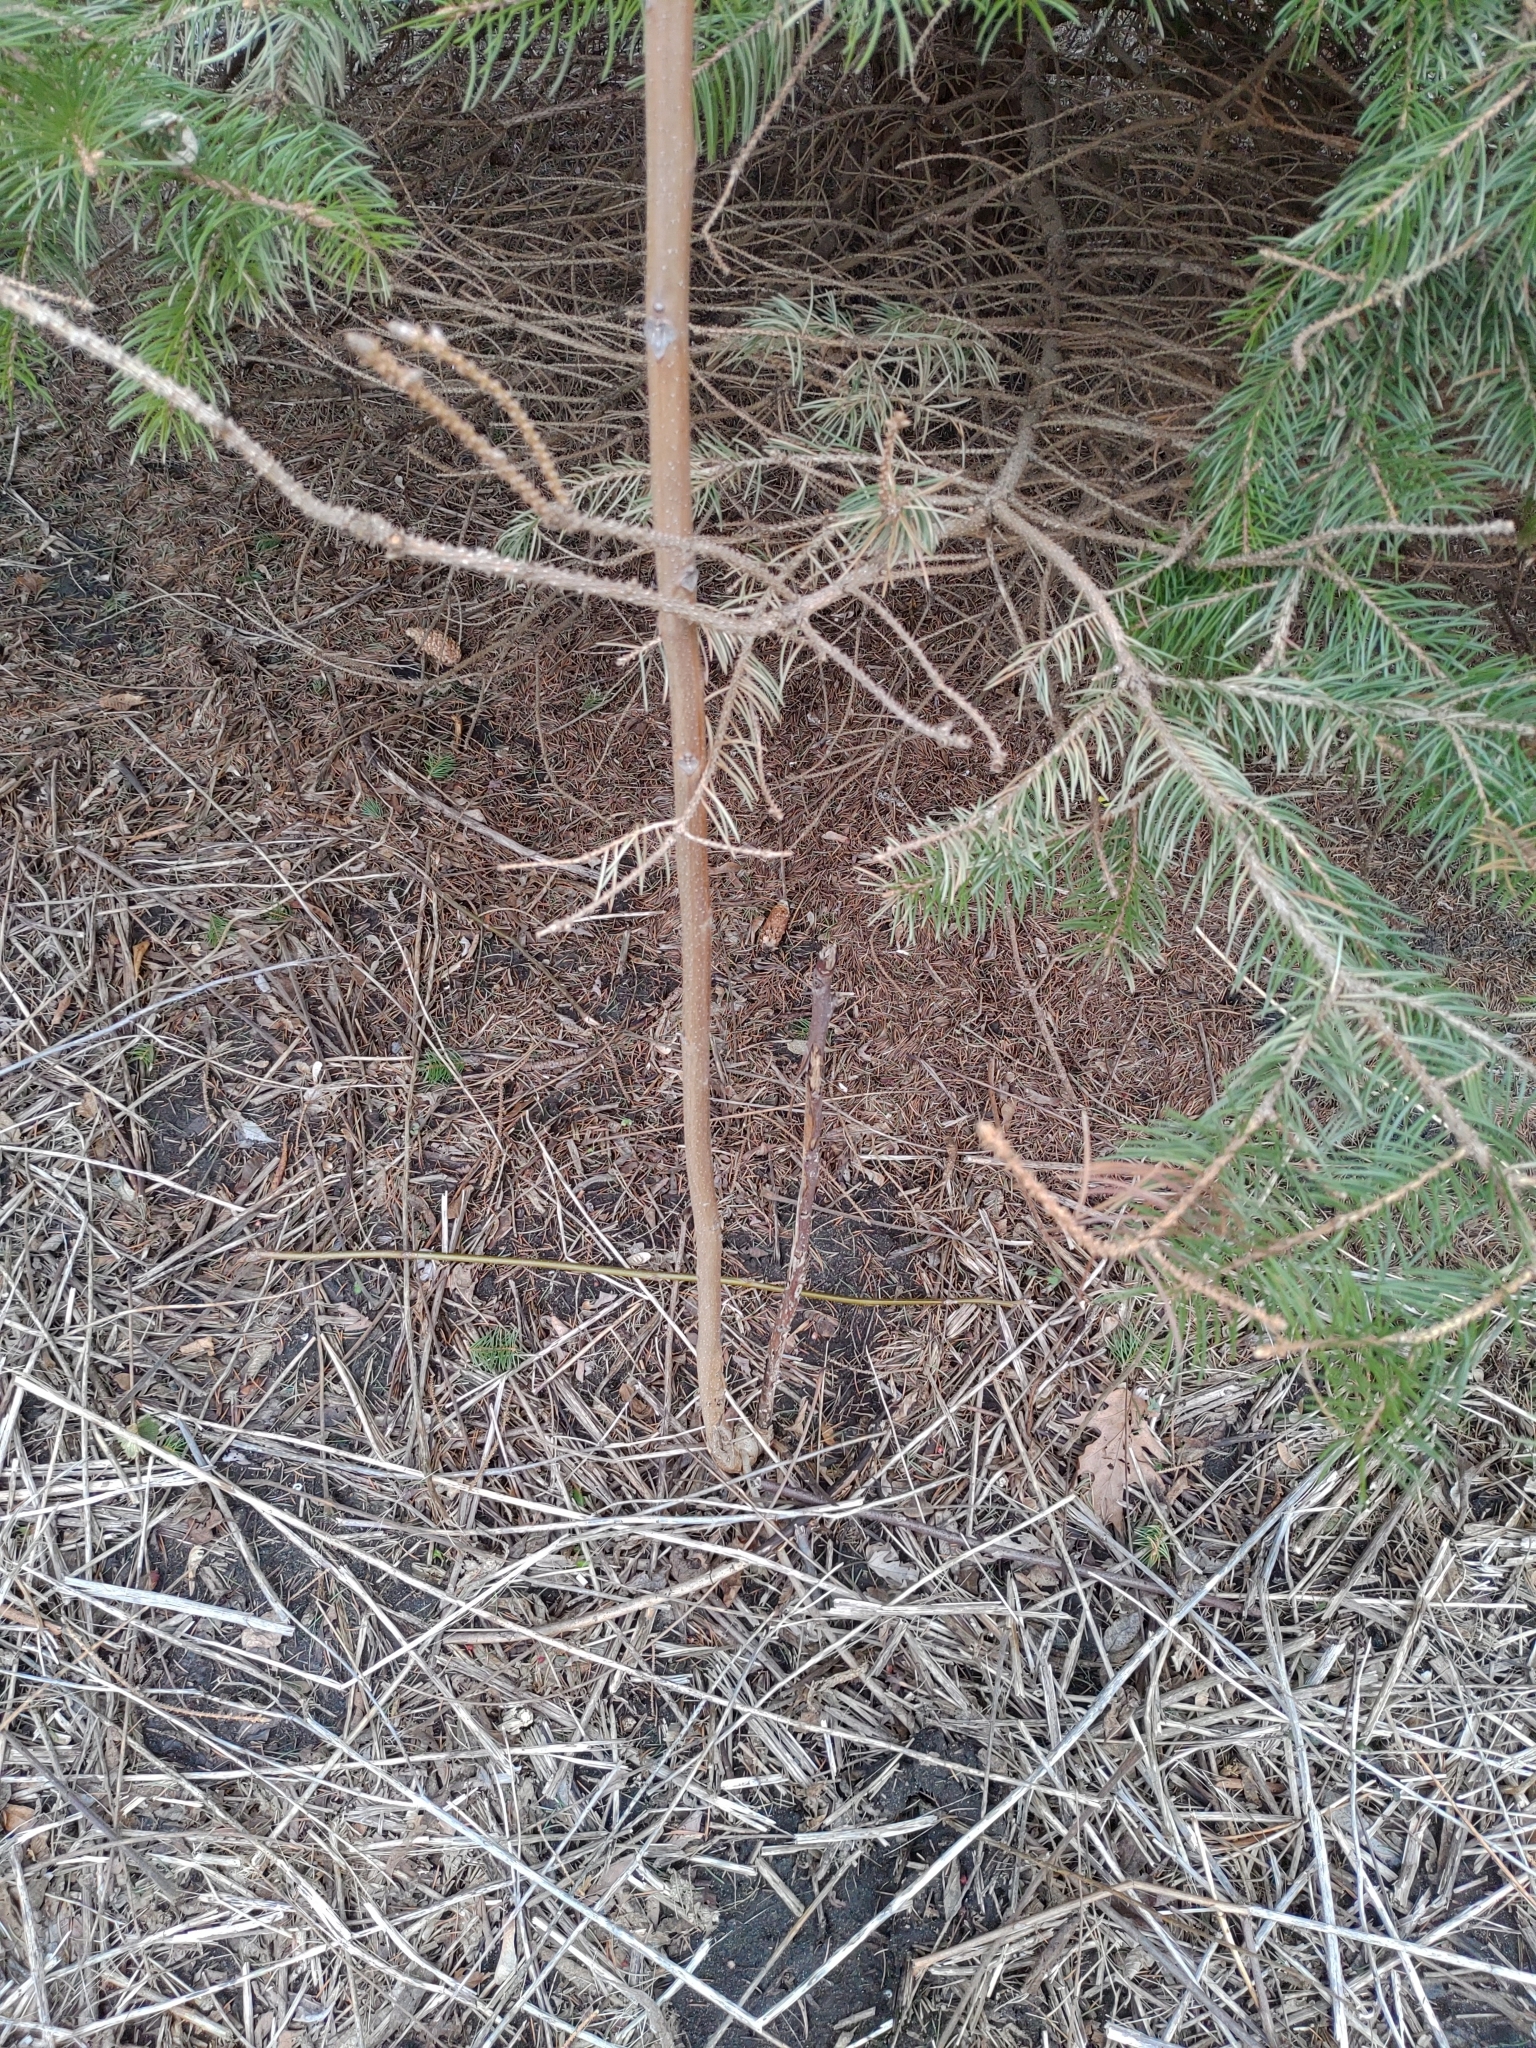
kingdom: Plantae
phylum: Tracheophyta
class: Magnoliopsida
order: Sapindales
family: Simaroubaceae
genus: Ailanthus
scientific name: Ailanthus altissima
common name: Tree-of-heaven
